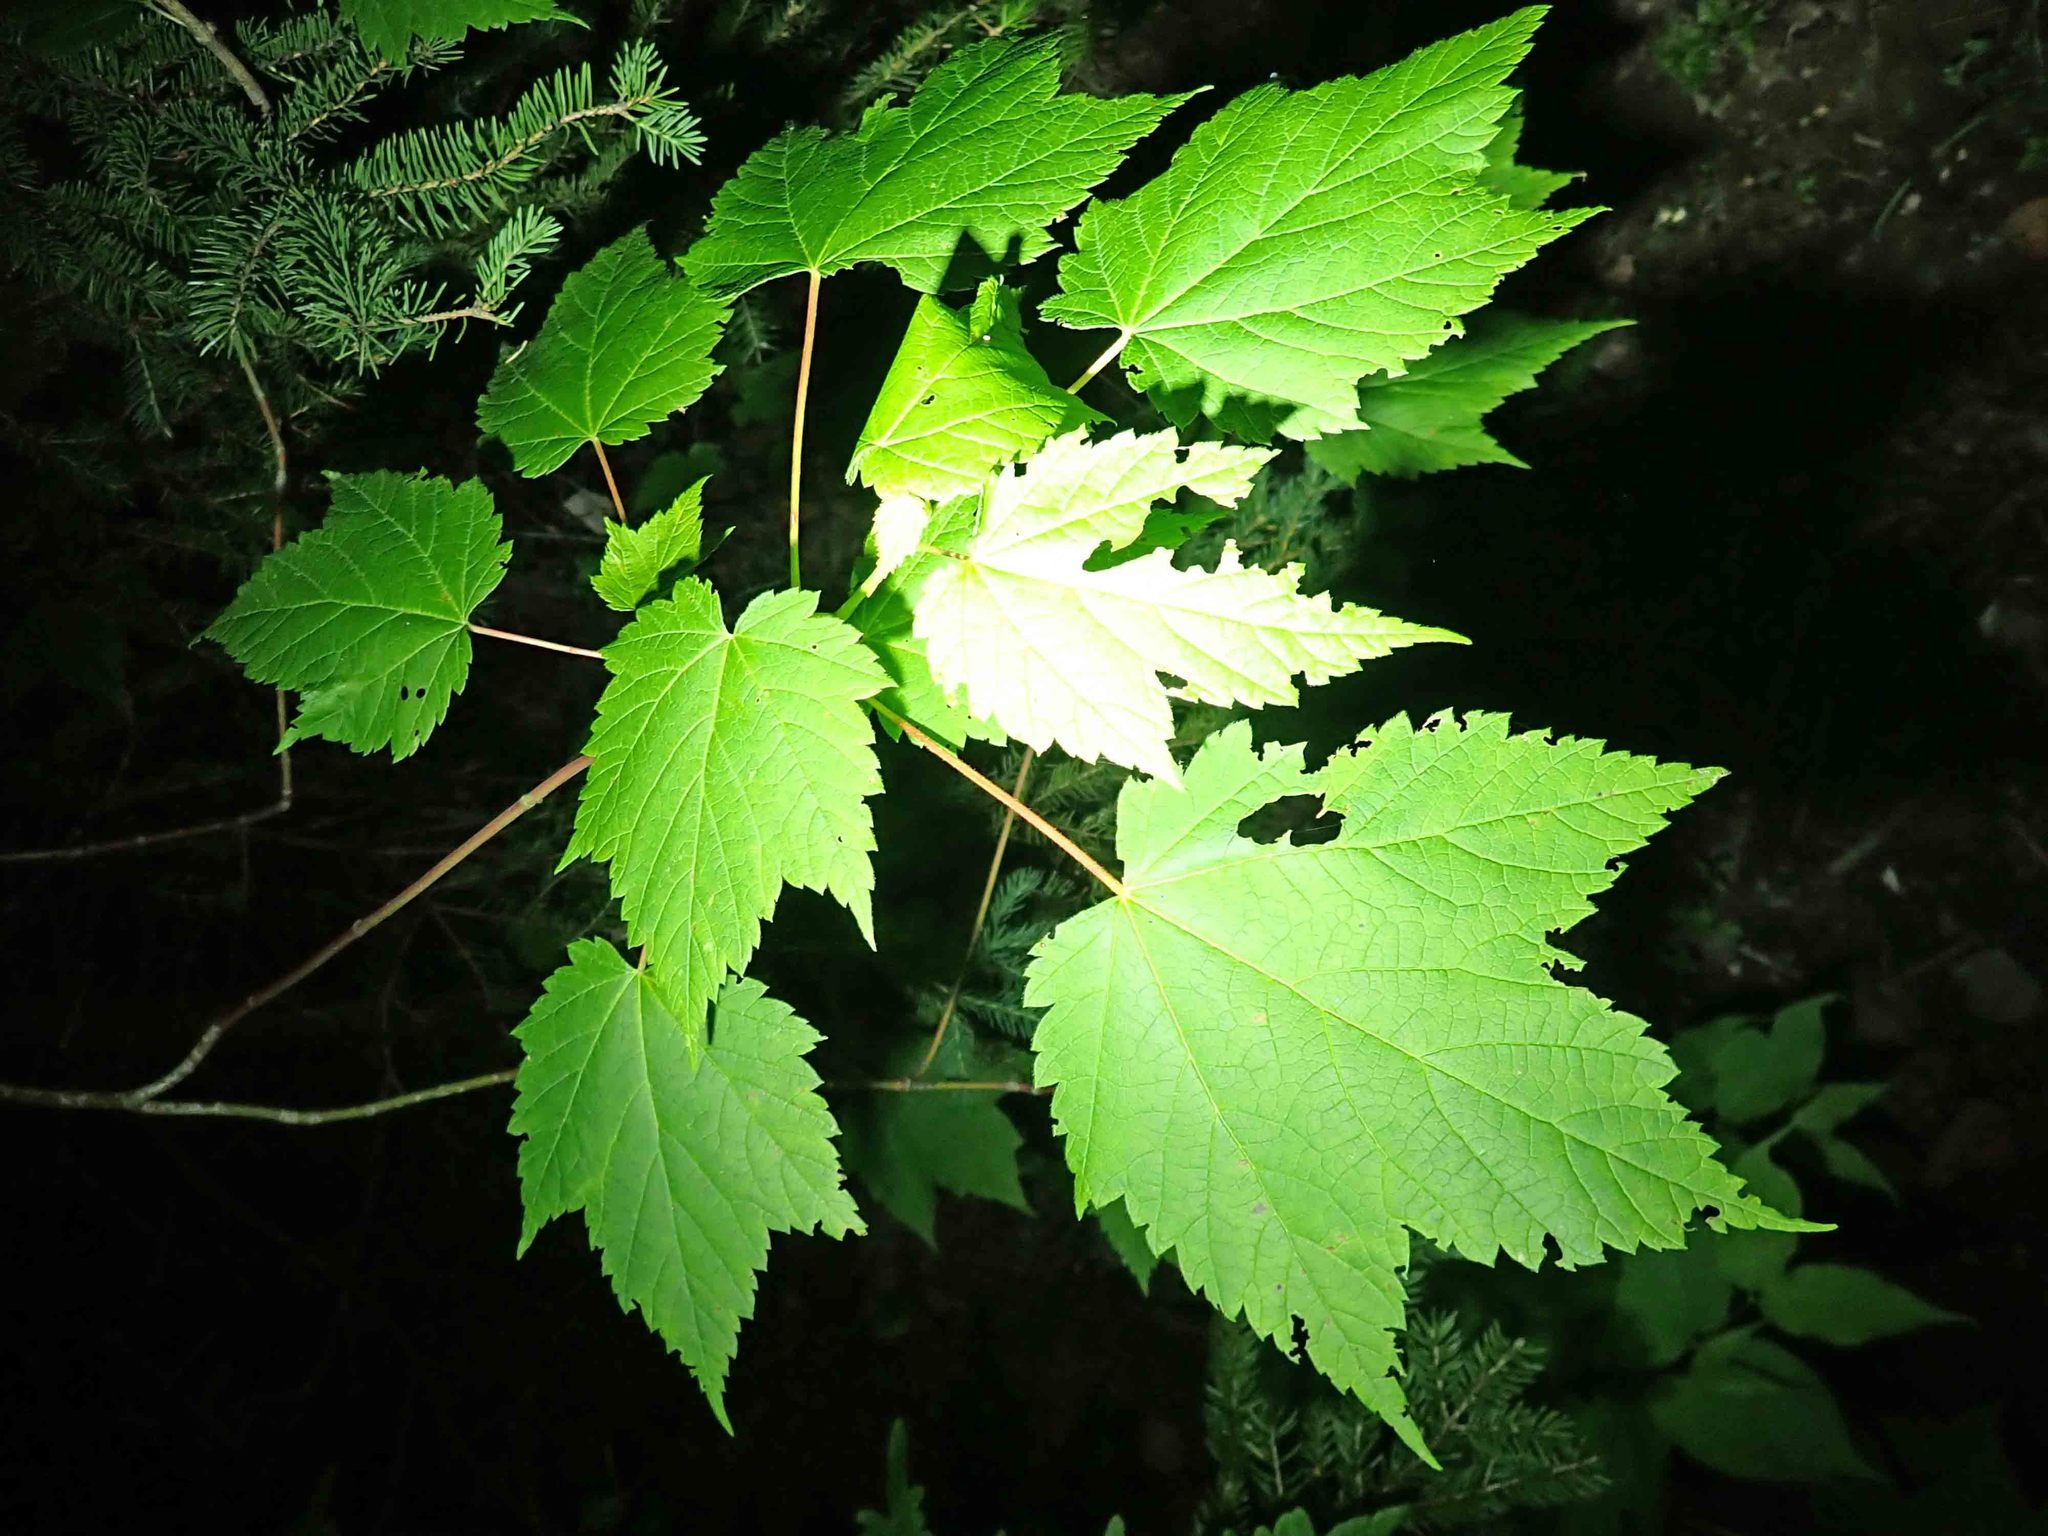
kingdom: Plantae
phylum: Tracheophyta
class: Magnoliopsida
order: Sapindales
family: Sapindaceae
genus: Acer
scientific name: Acer spicatum
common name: Mountain maple
